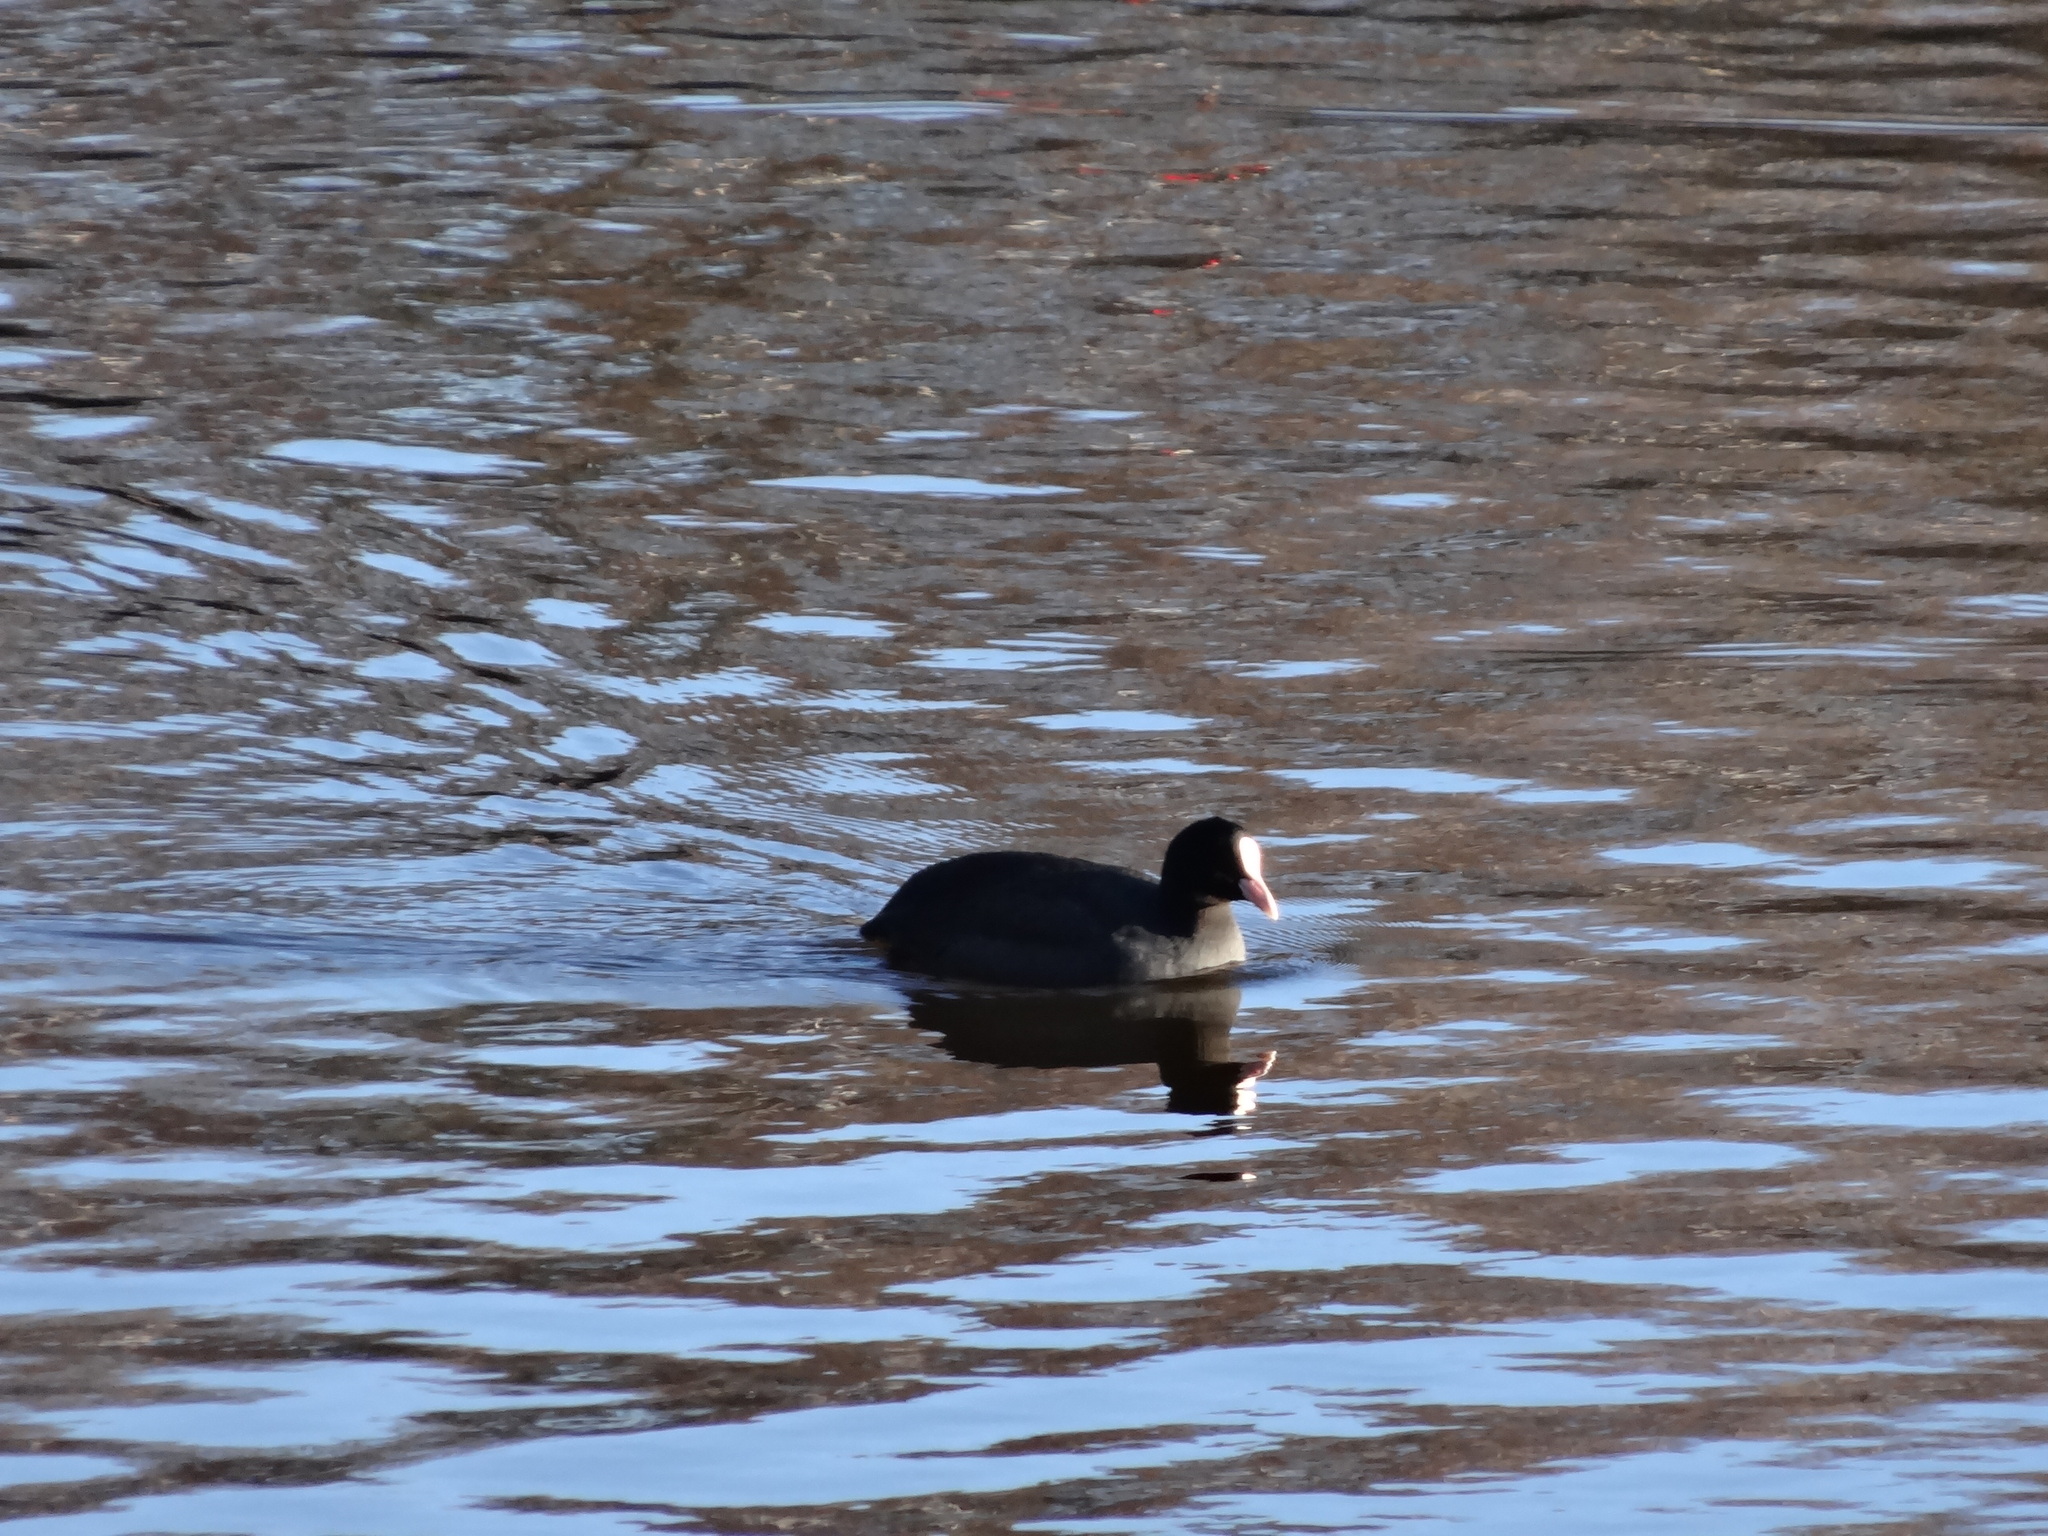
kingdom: Animalia
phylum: Chordata
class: Aves
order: Gruiformes
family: Rallidae
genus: Fulica
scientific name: Fulica atra
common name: Eurasian coot
